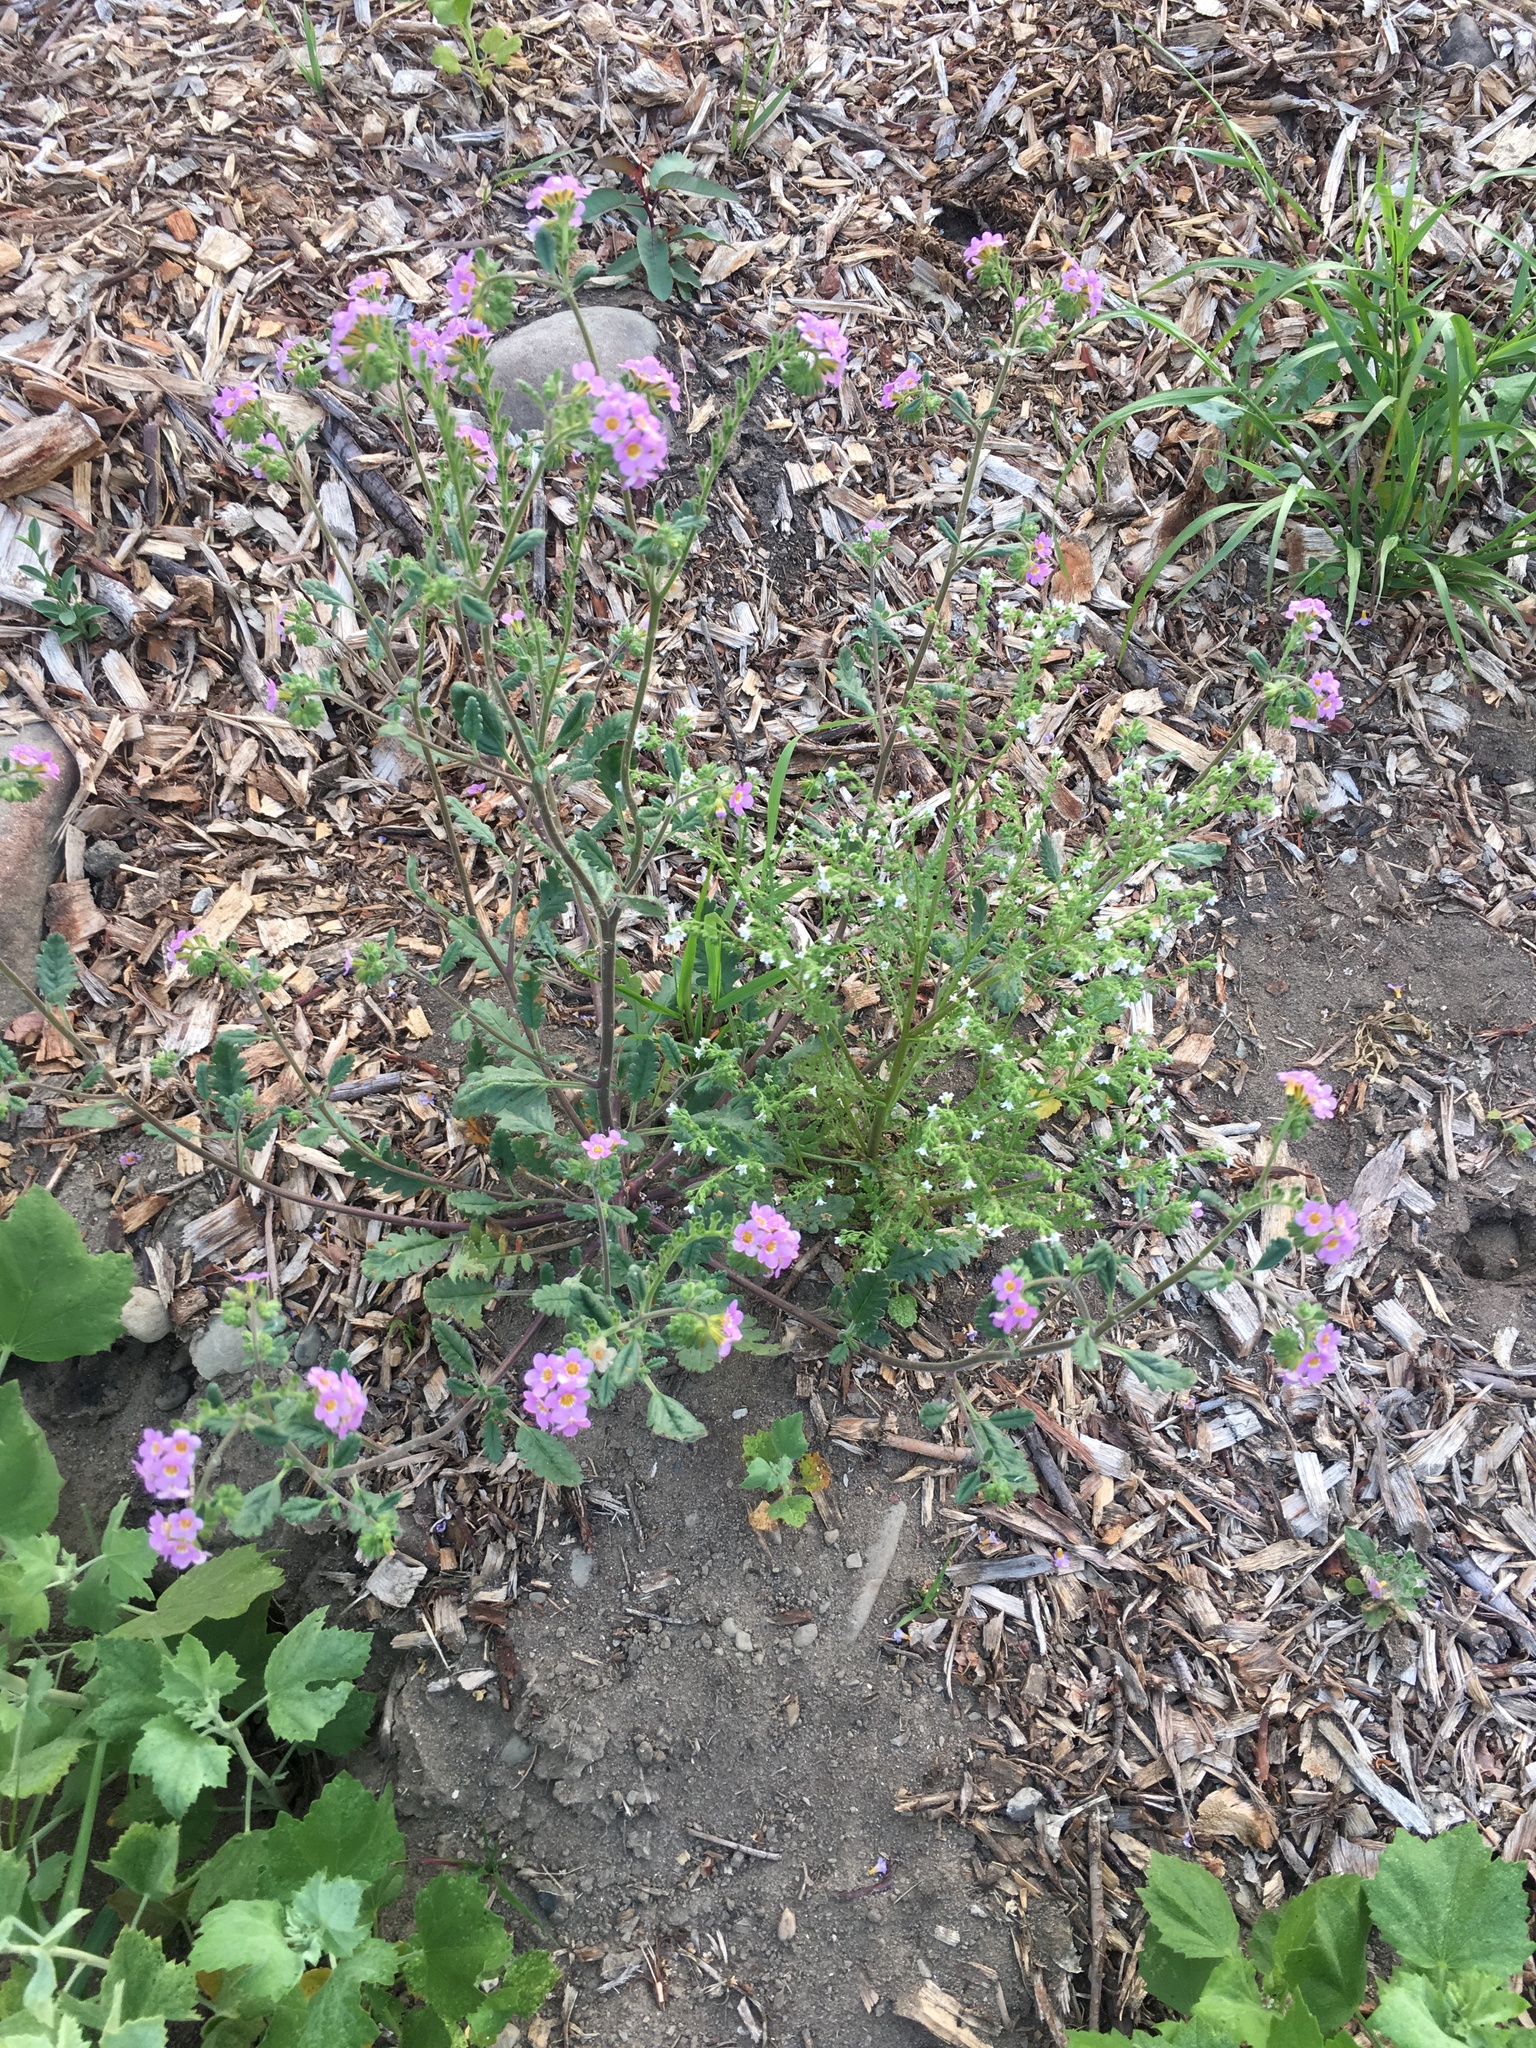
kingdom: Plantae
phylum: Tracheophyta
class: Magnoliopsida
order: Boraginales
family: Hydrophyllaceae
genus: Phacelia
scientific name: Phacelia brachyloba
